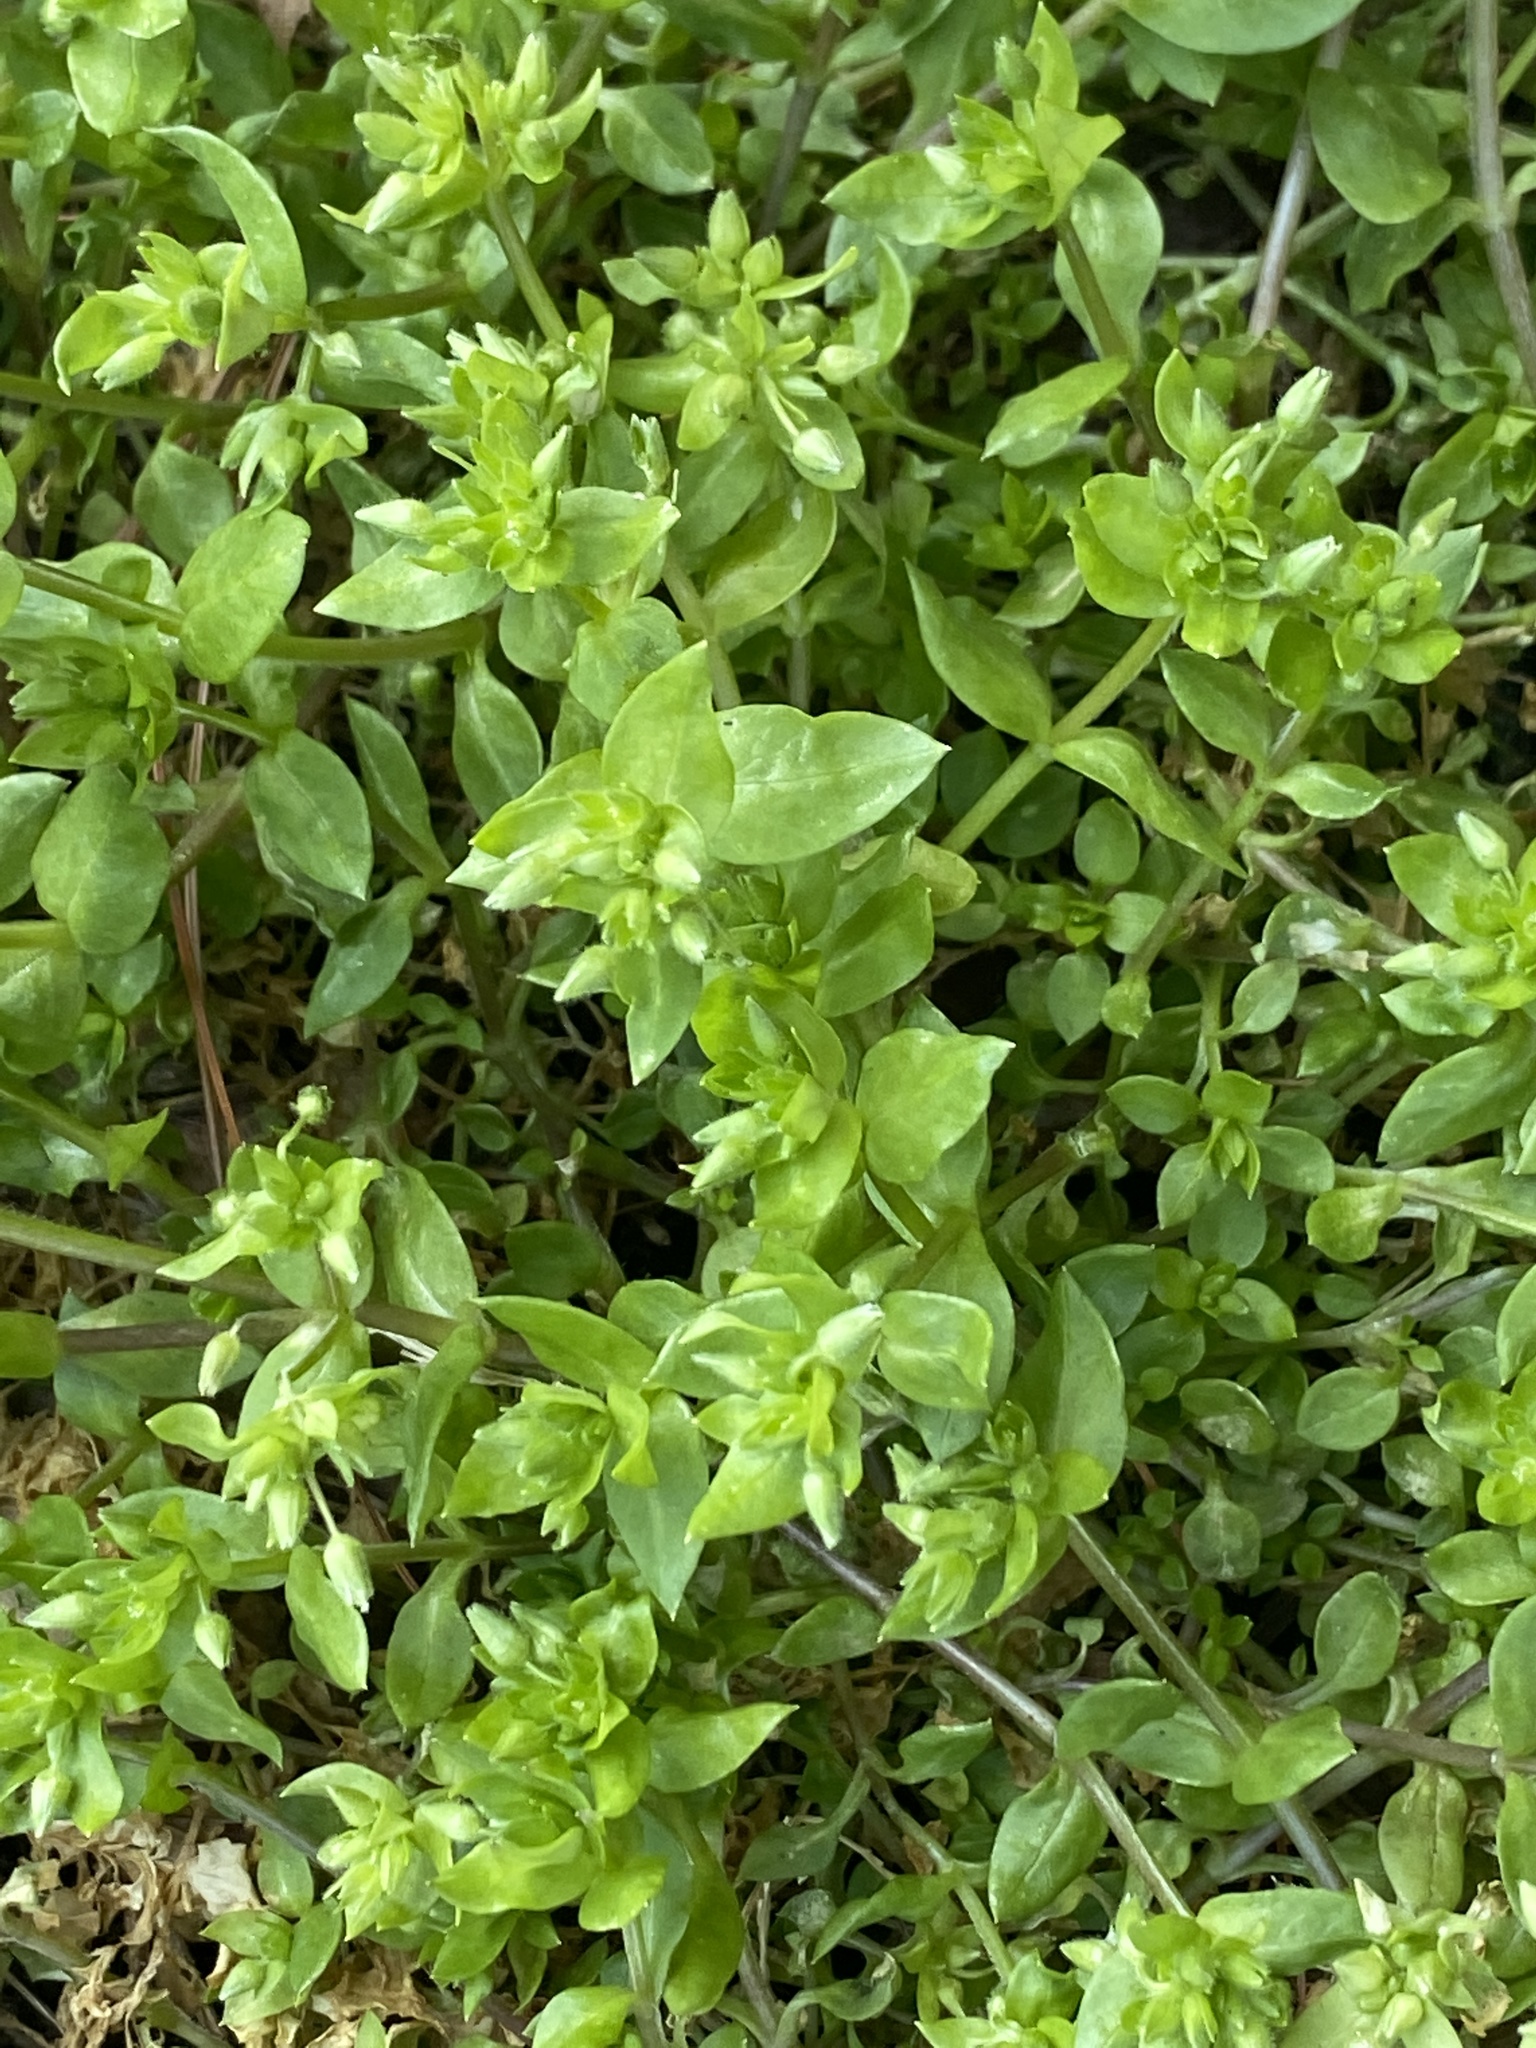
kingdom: Plantae
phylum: Tracheophyta
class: Magnoliopsida
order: Caryophyllales
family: Caryophyllaceae
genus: Stellaria
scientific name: Stellaria media
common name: Common chickweed
